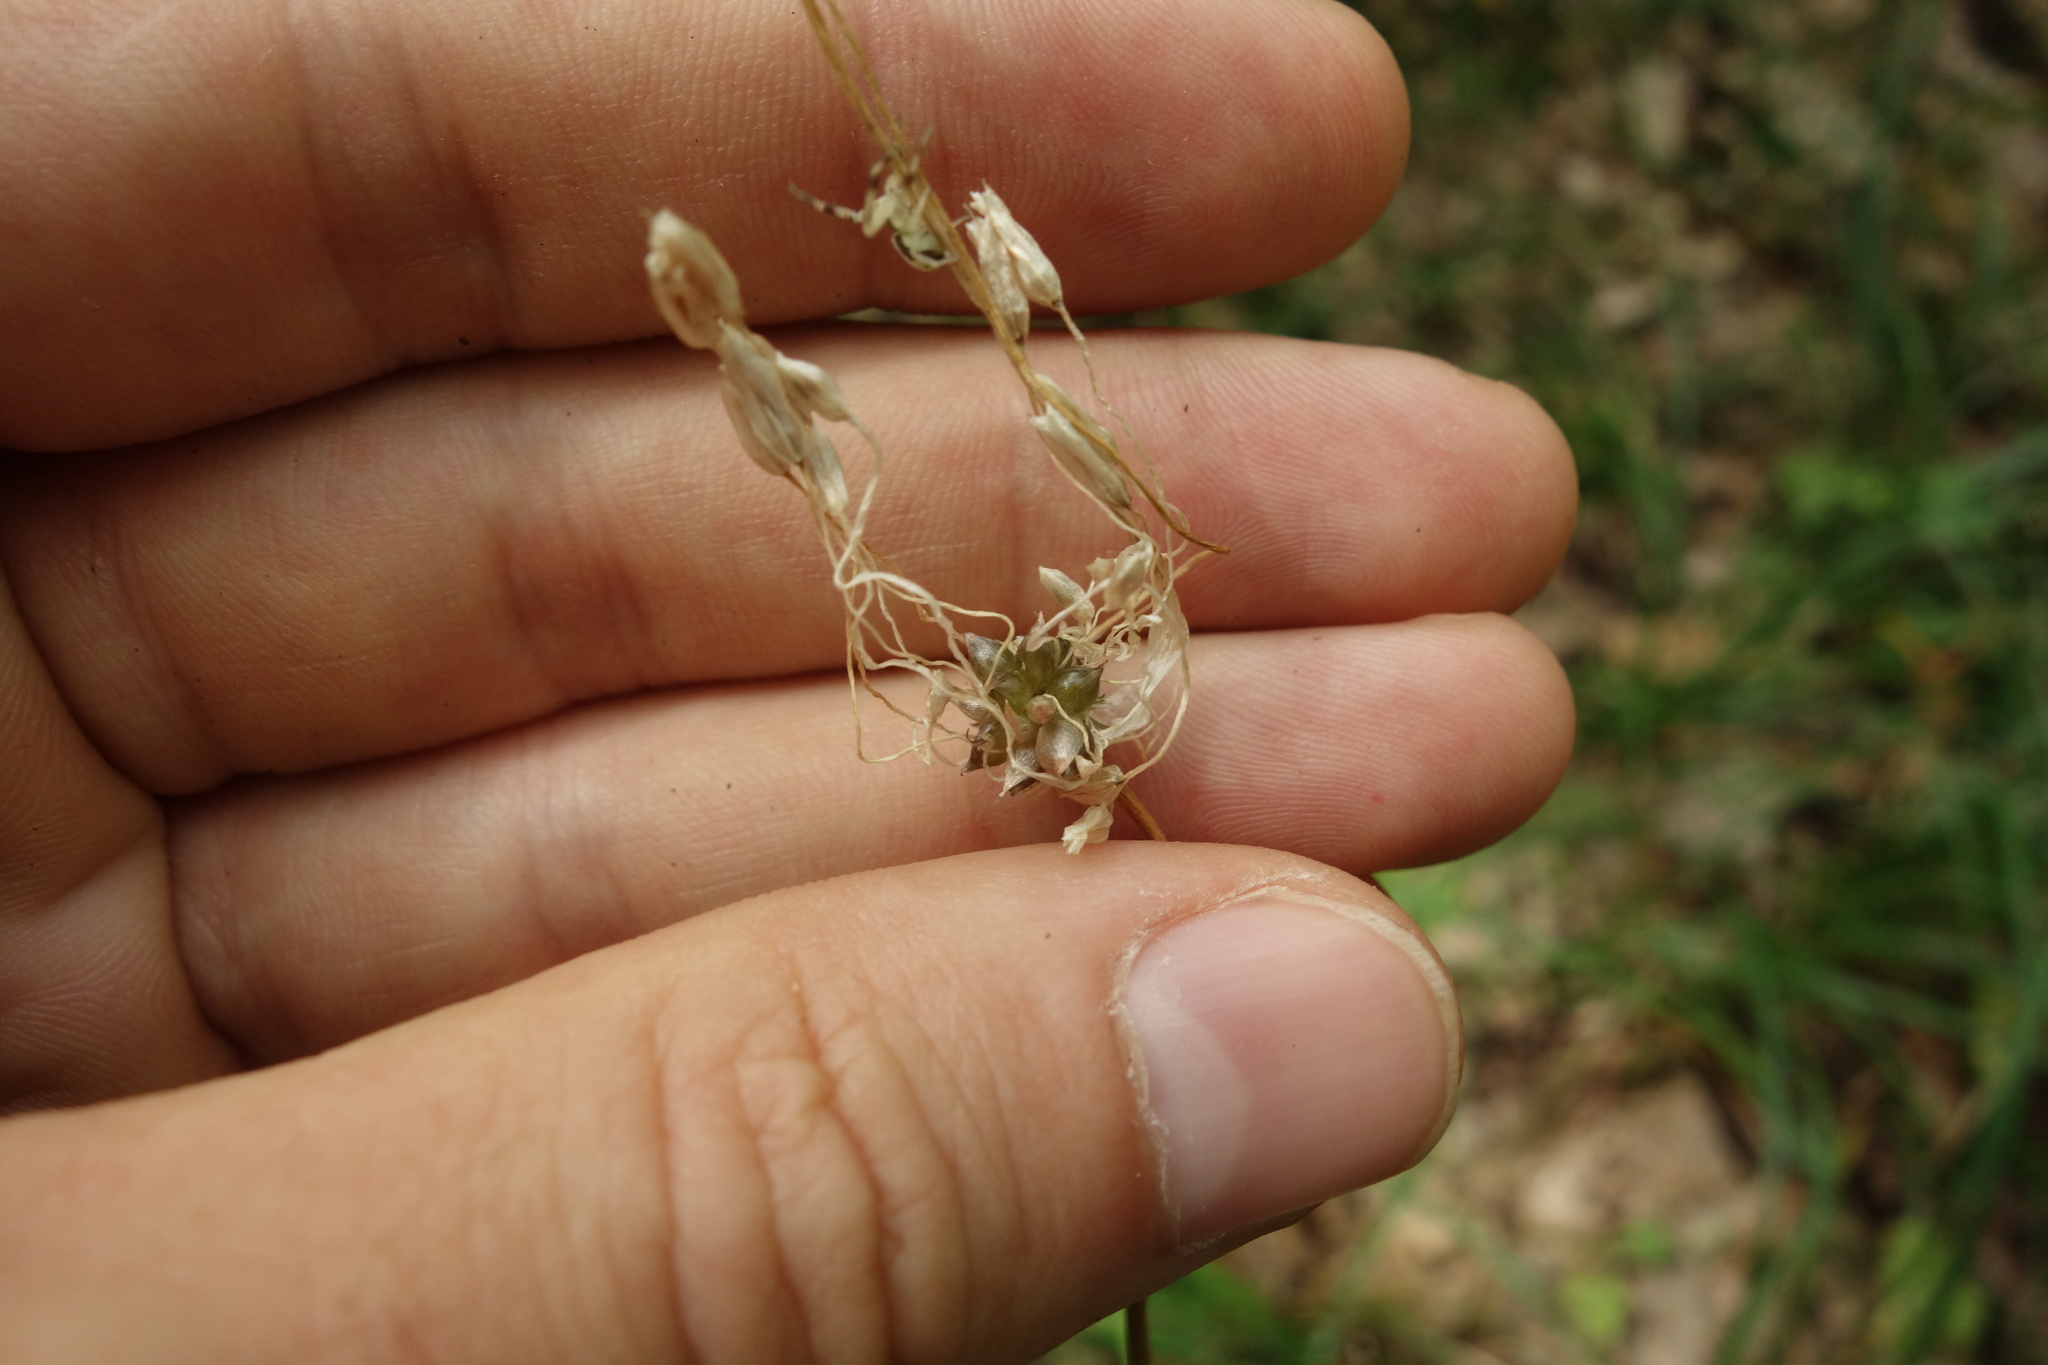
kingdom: Plantae
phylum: Tracheophyta
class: Liliopsida
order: Asparagales
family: Amaryllidaceae
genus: Allium
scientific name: Allium oleraceum
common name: Field garlic
